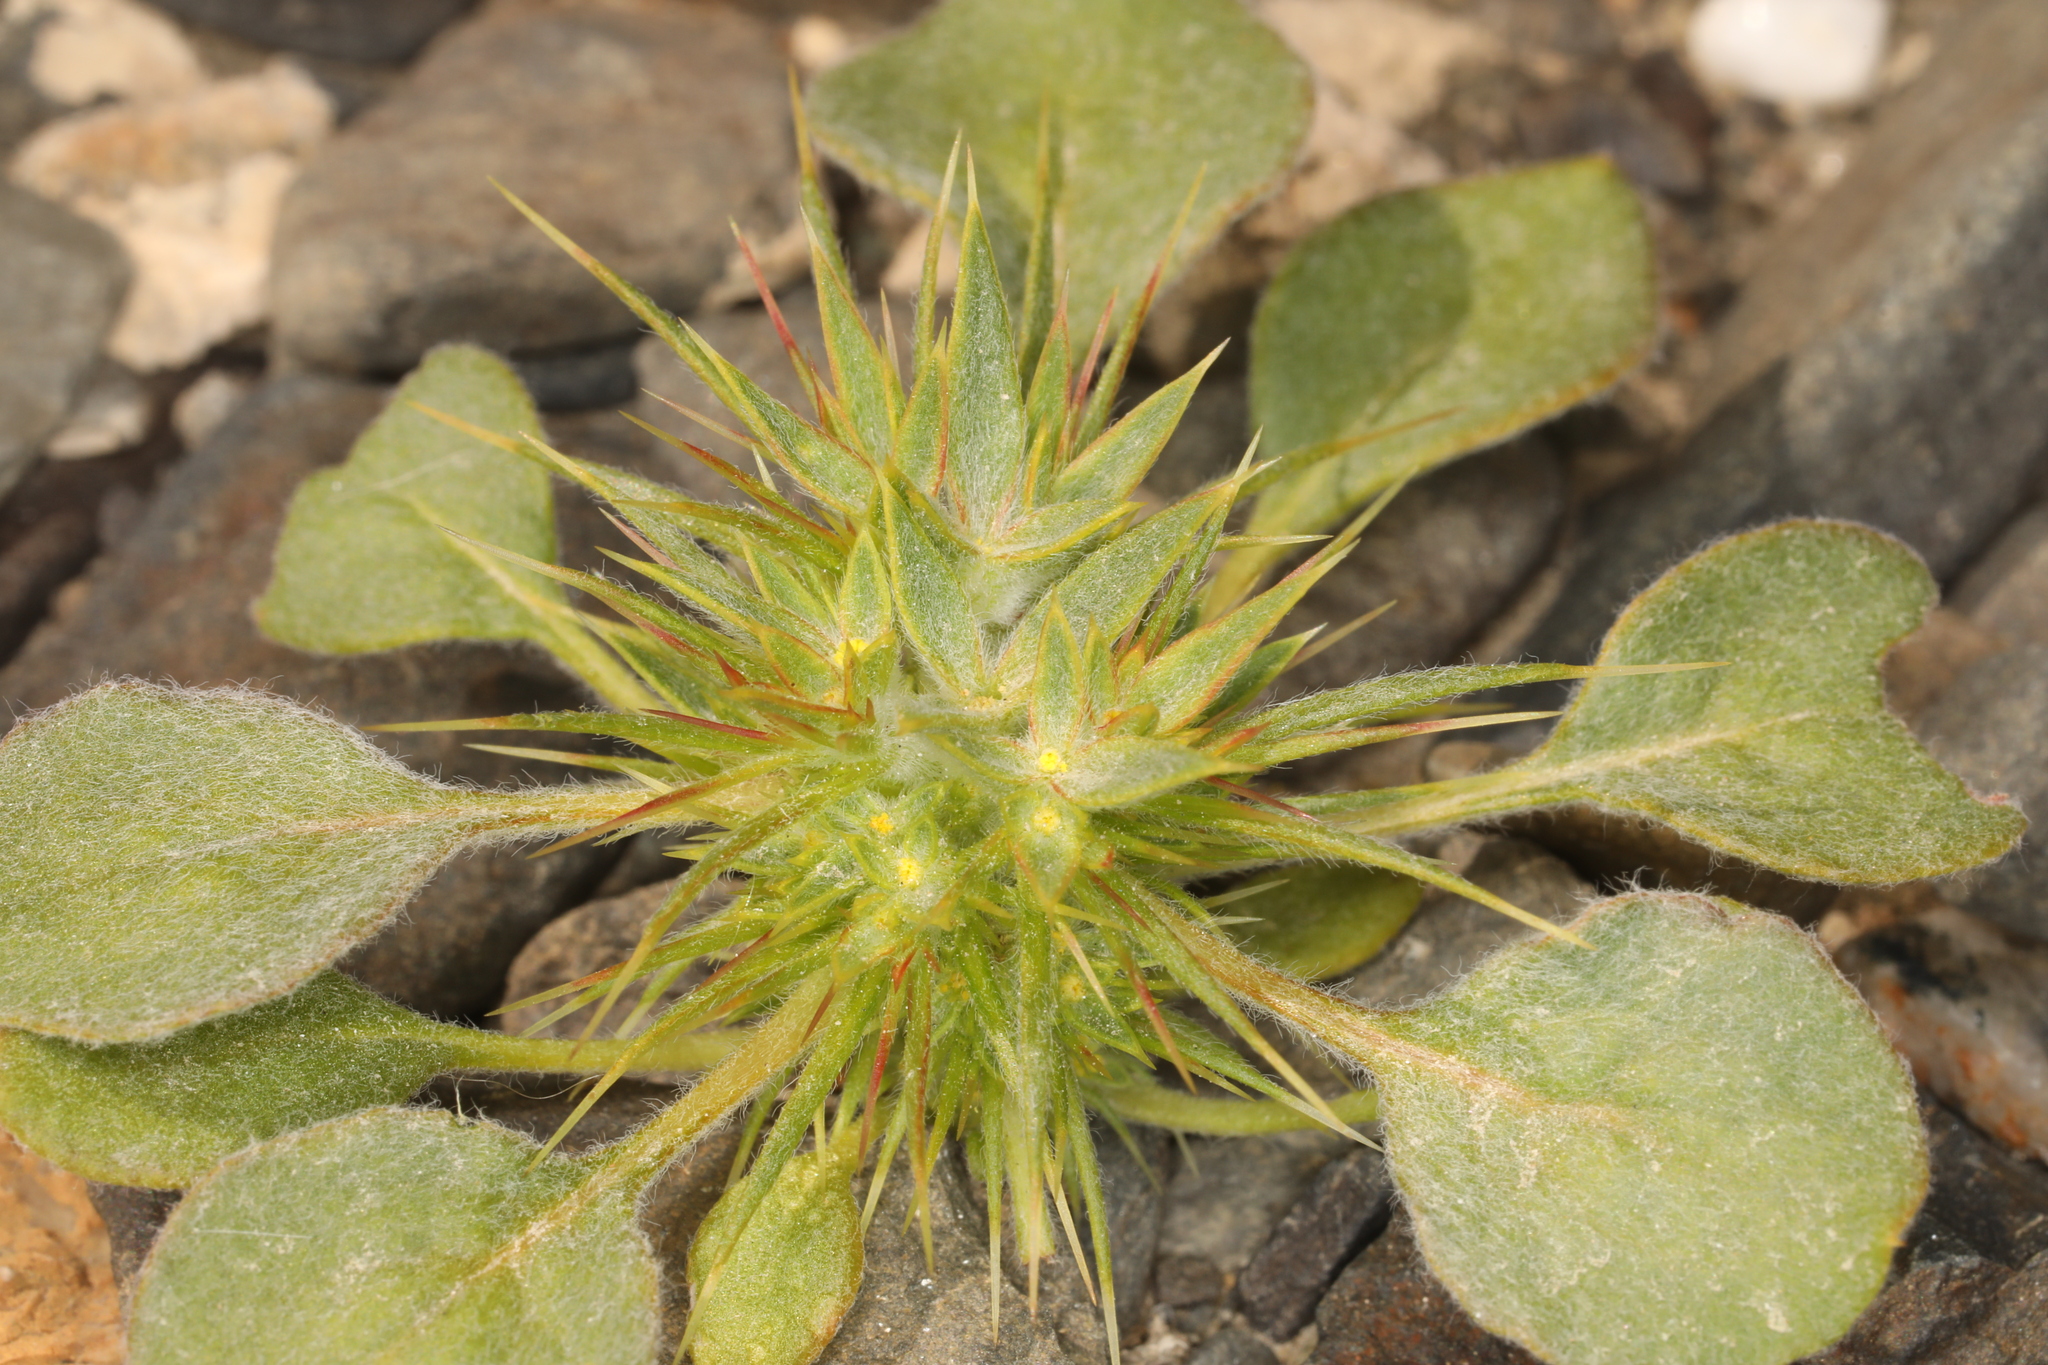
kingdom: Plantae
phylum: Tracheophyta
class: Magnoliopsida
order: Caryophyllales
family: Polygonaceae
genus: Chorizanthe
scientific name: Chorizanthe rigida
